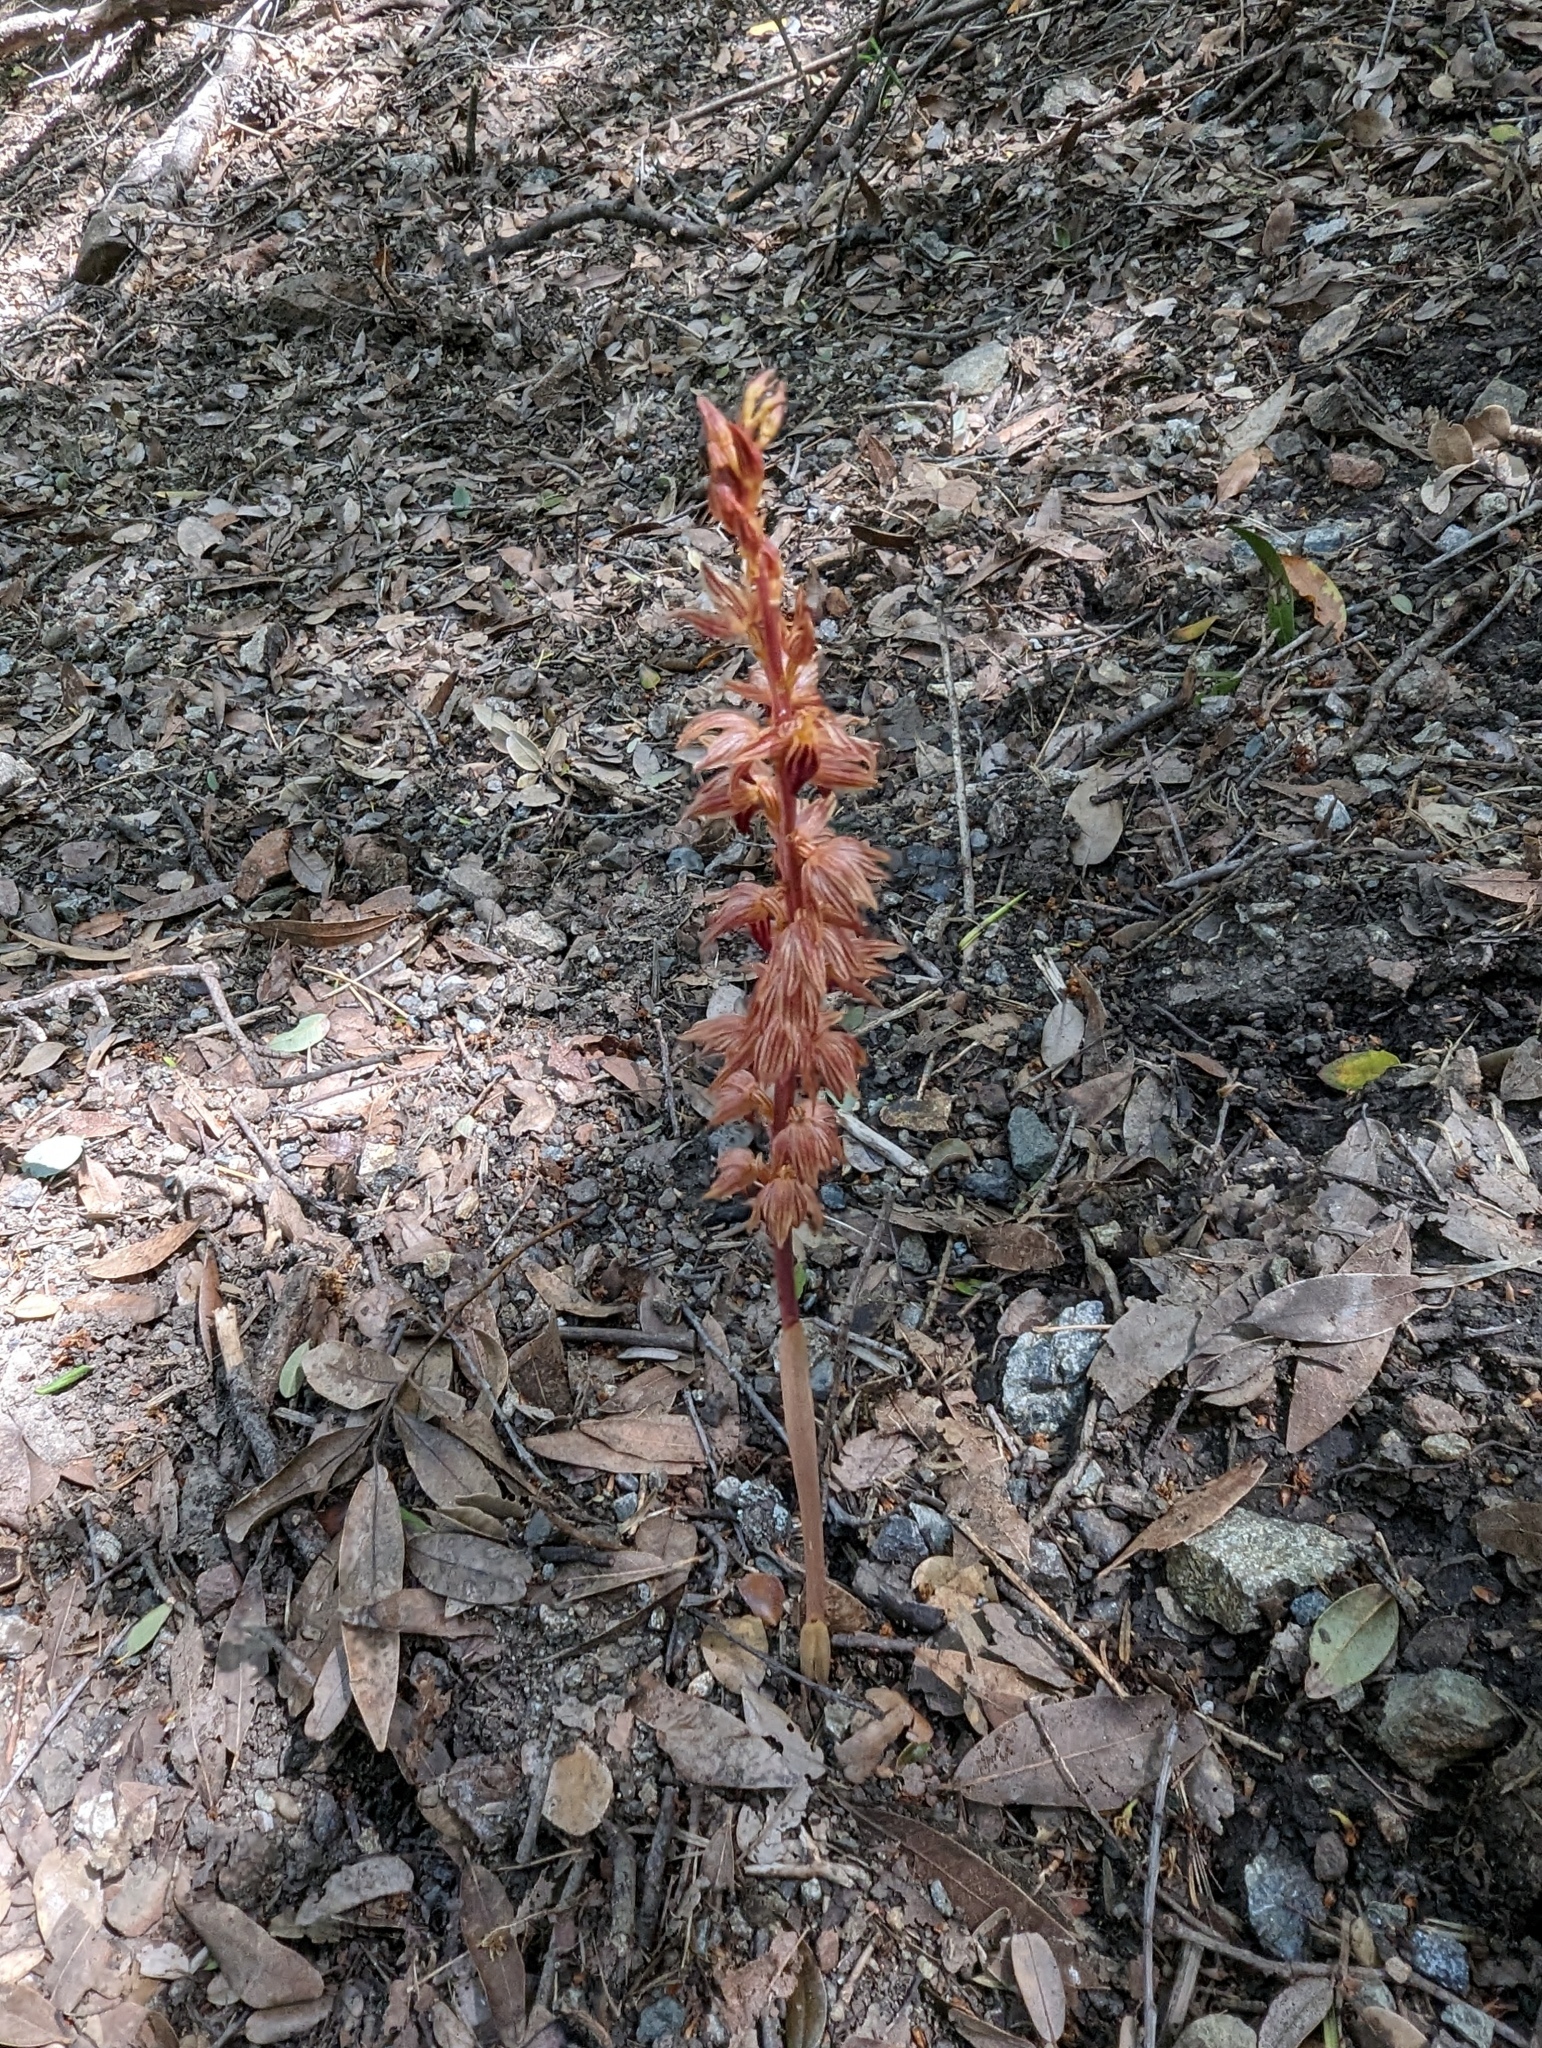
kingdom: Plantae
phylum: Tracheophyta
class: Liliopsida
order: Asparagales
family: Orchidaceae
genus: Corallorhiza
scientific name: Corallorhiza striata
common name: Hooded coralroot
